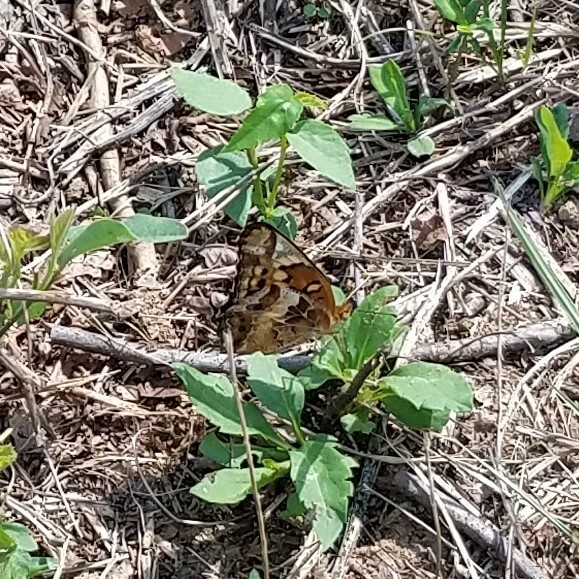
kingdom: Animalia
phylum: Arthropoda
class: Insecta
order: Lepidoptera
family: Nymphalidae
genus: Euptoieta
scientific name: Euptoieta claudia
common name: Variegated fritillary
